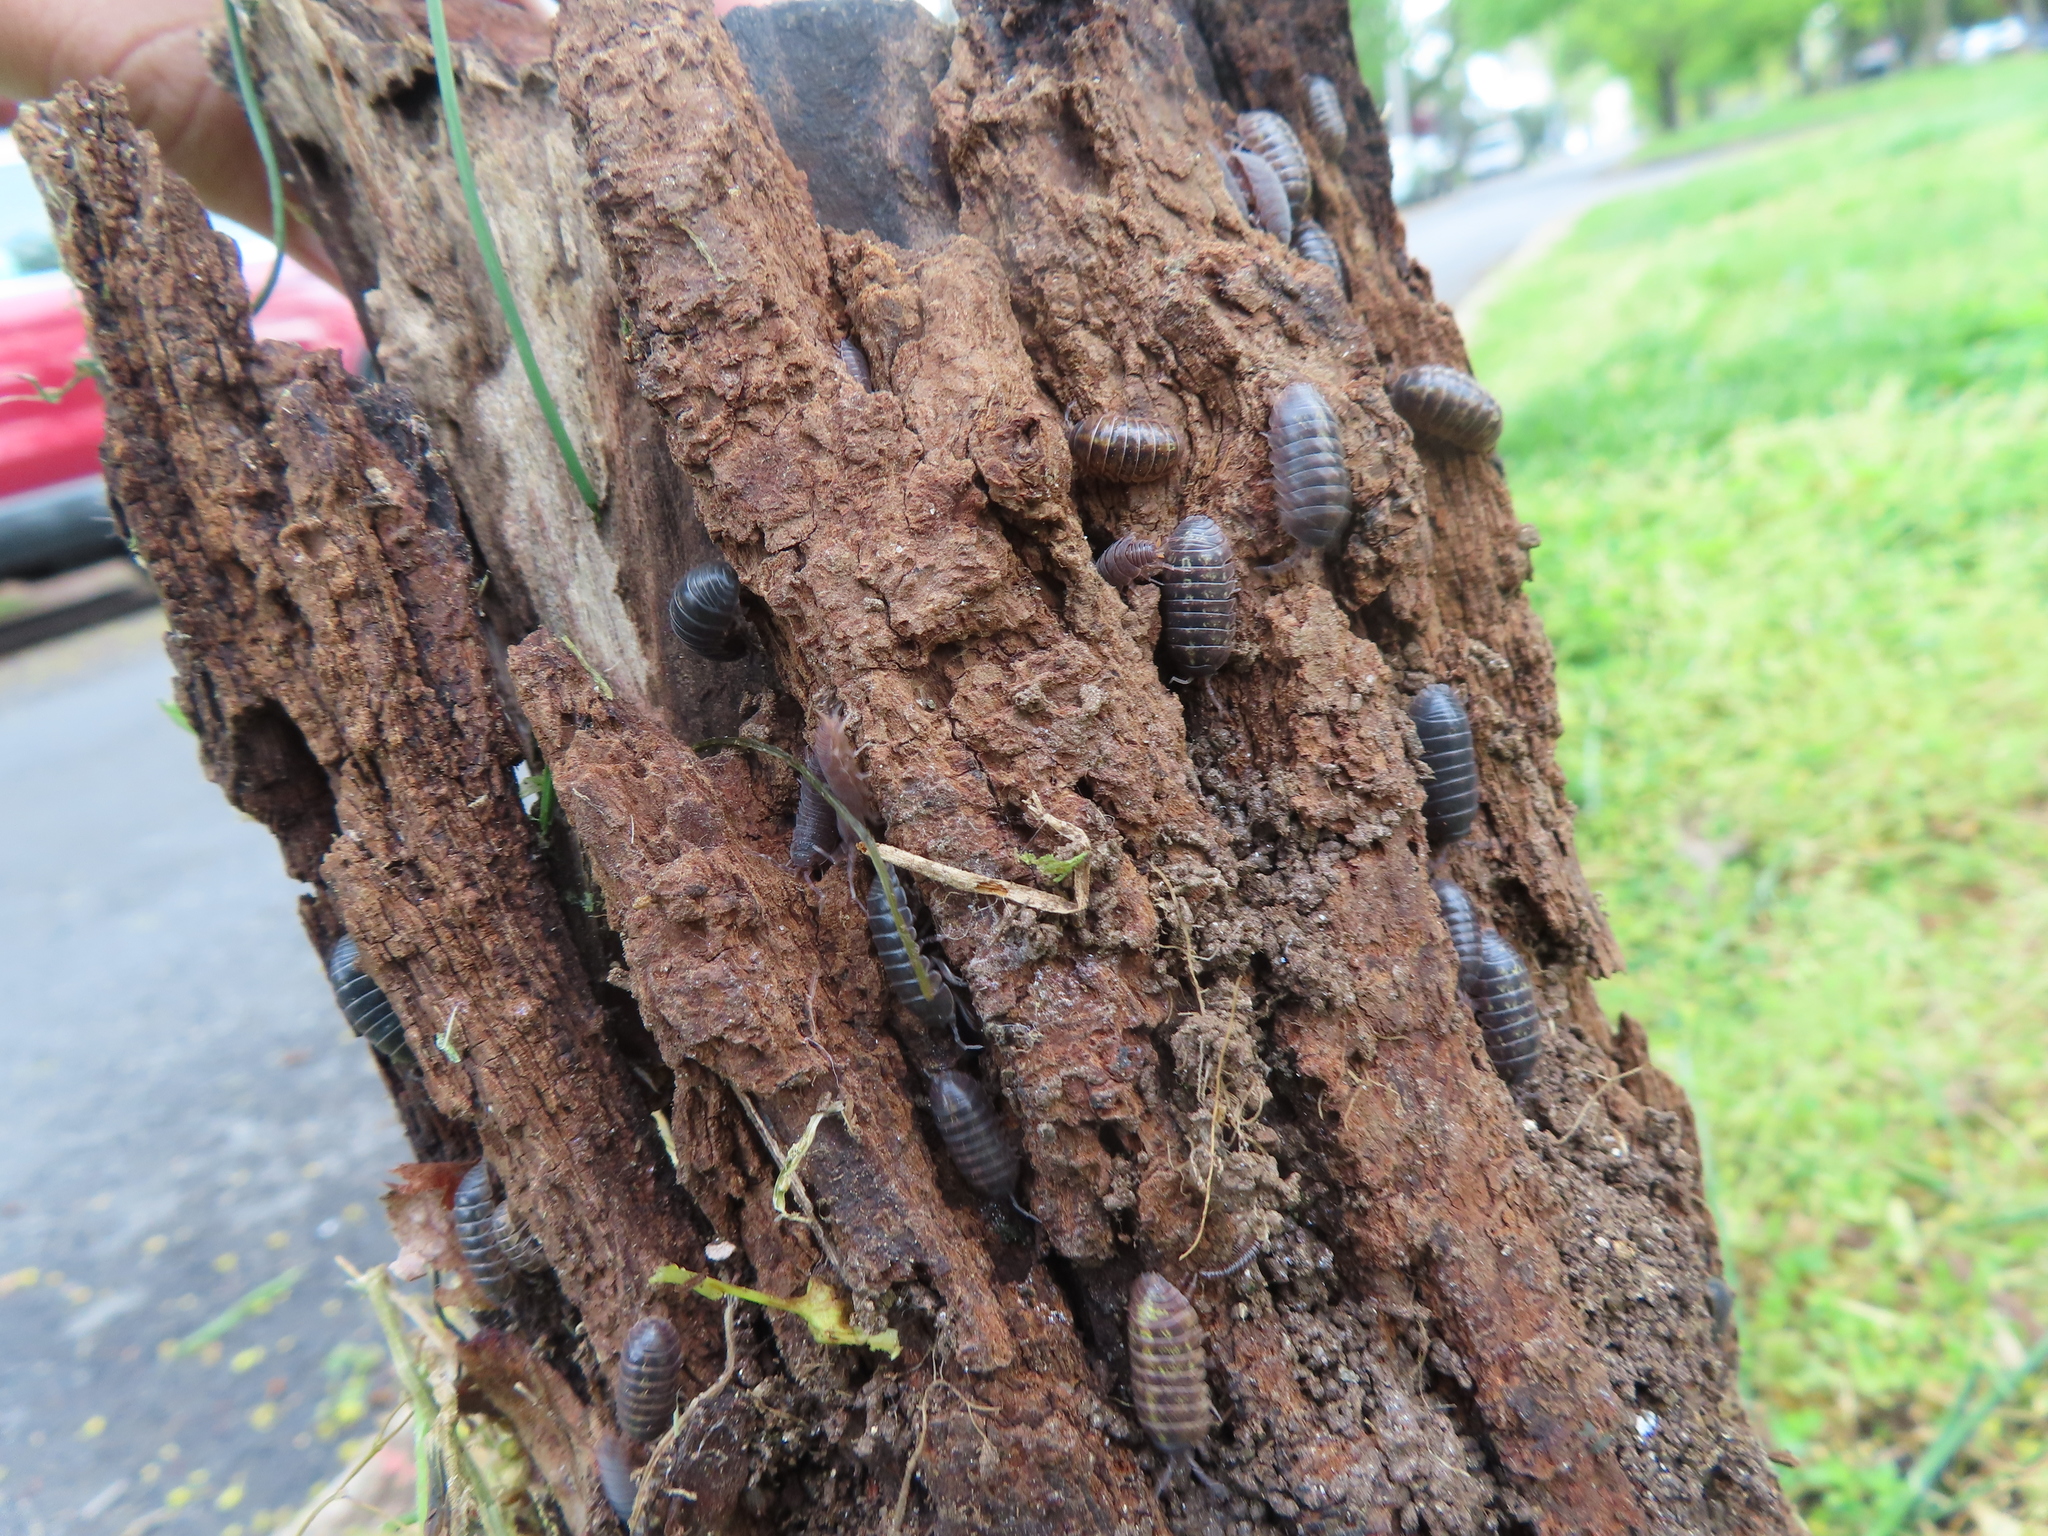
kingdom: Animalia
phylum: Arthropoda
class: Malacostraca
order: Isopoda
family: Armadillidiidae
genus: Armadillidium
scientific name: Armadillidium vulgare
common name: Common pill woodlouse
